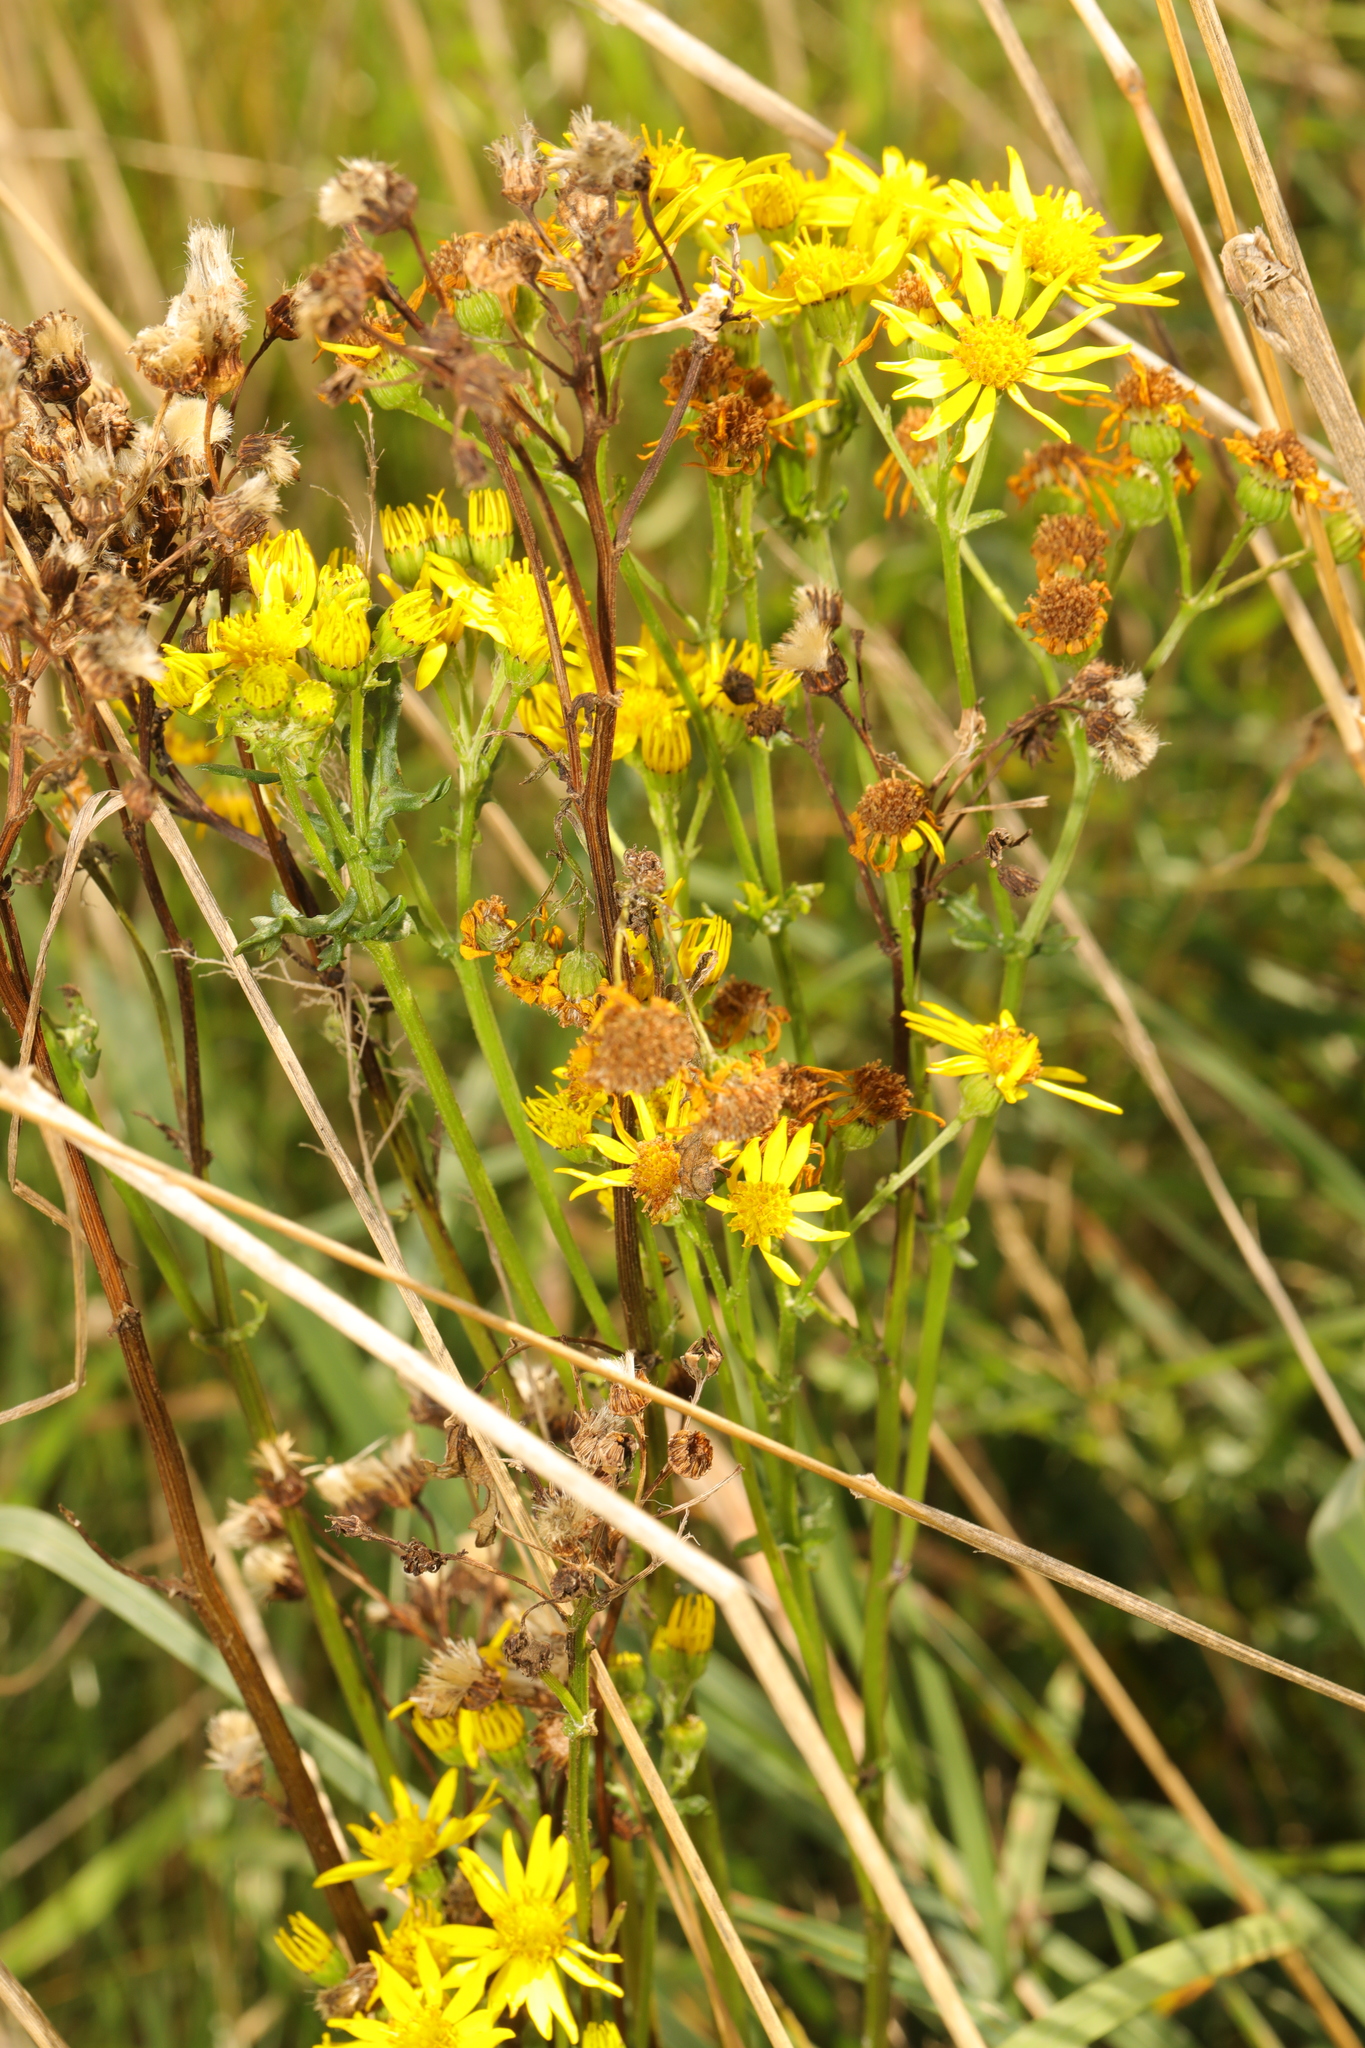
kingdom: Plantae
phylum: Tracheophyta
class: Magnoliopsida
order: Asterales
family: Asteraceae
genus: Jacobaea
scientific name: Jacobaea vulgaris
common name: Stinking willie
